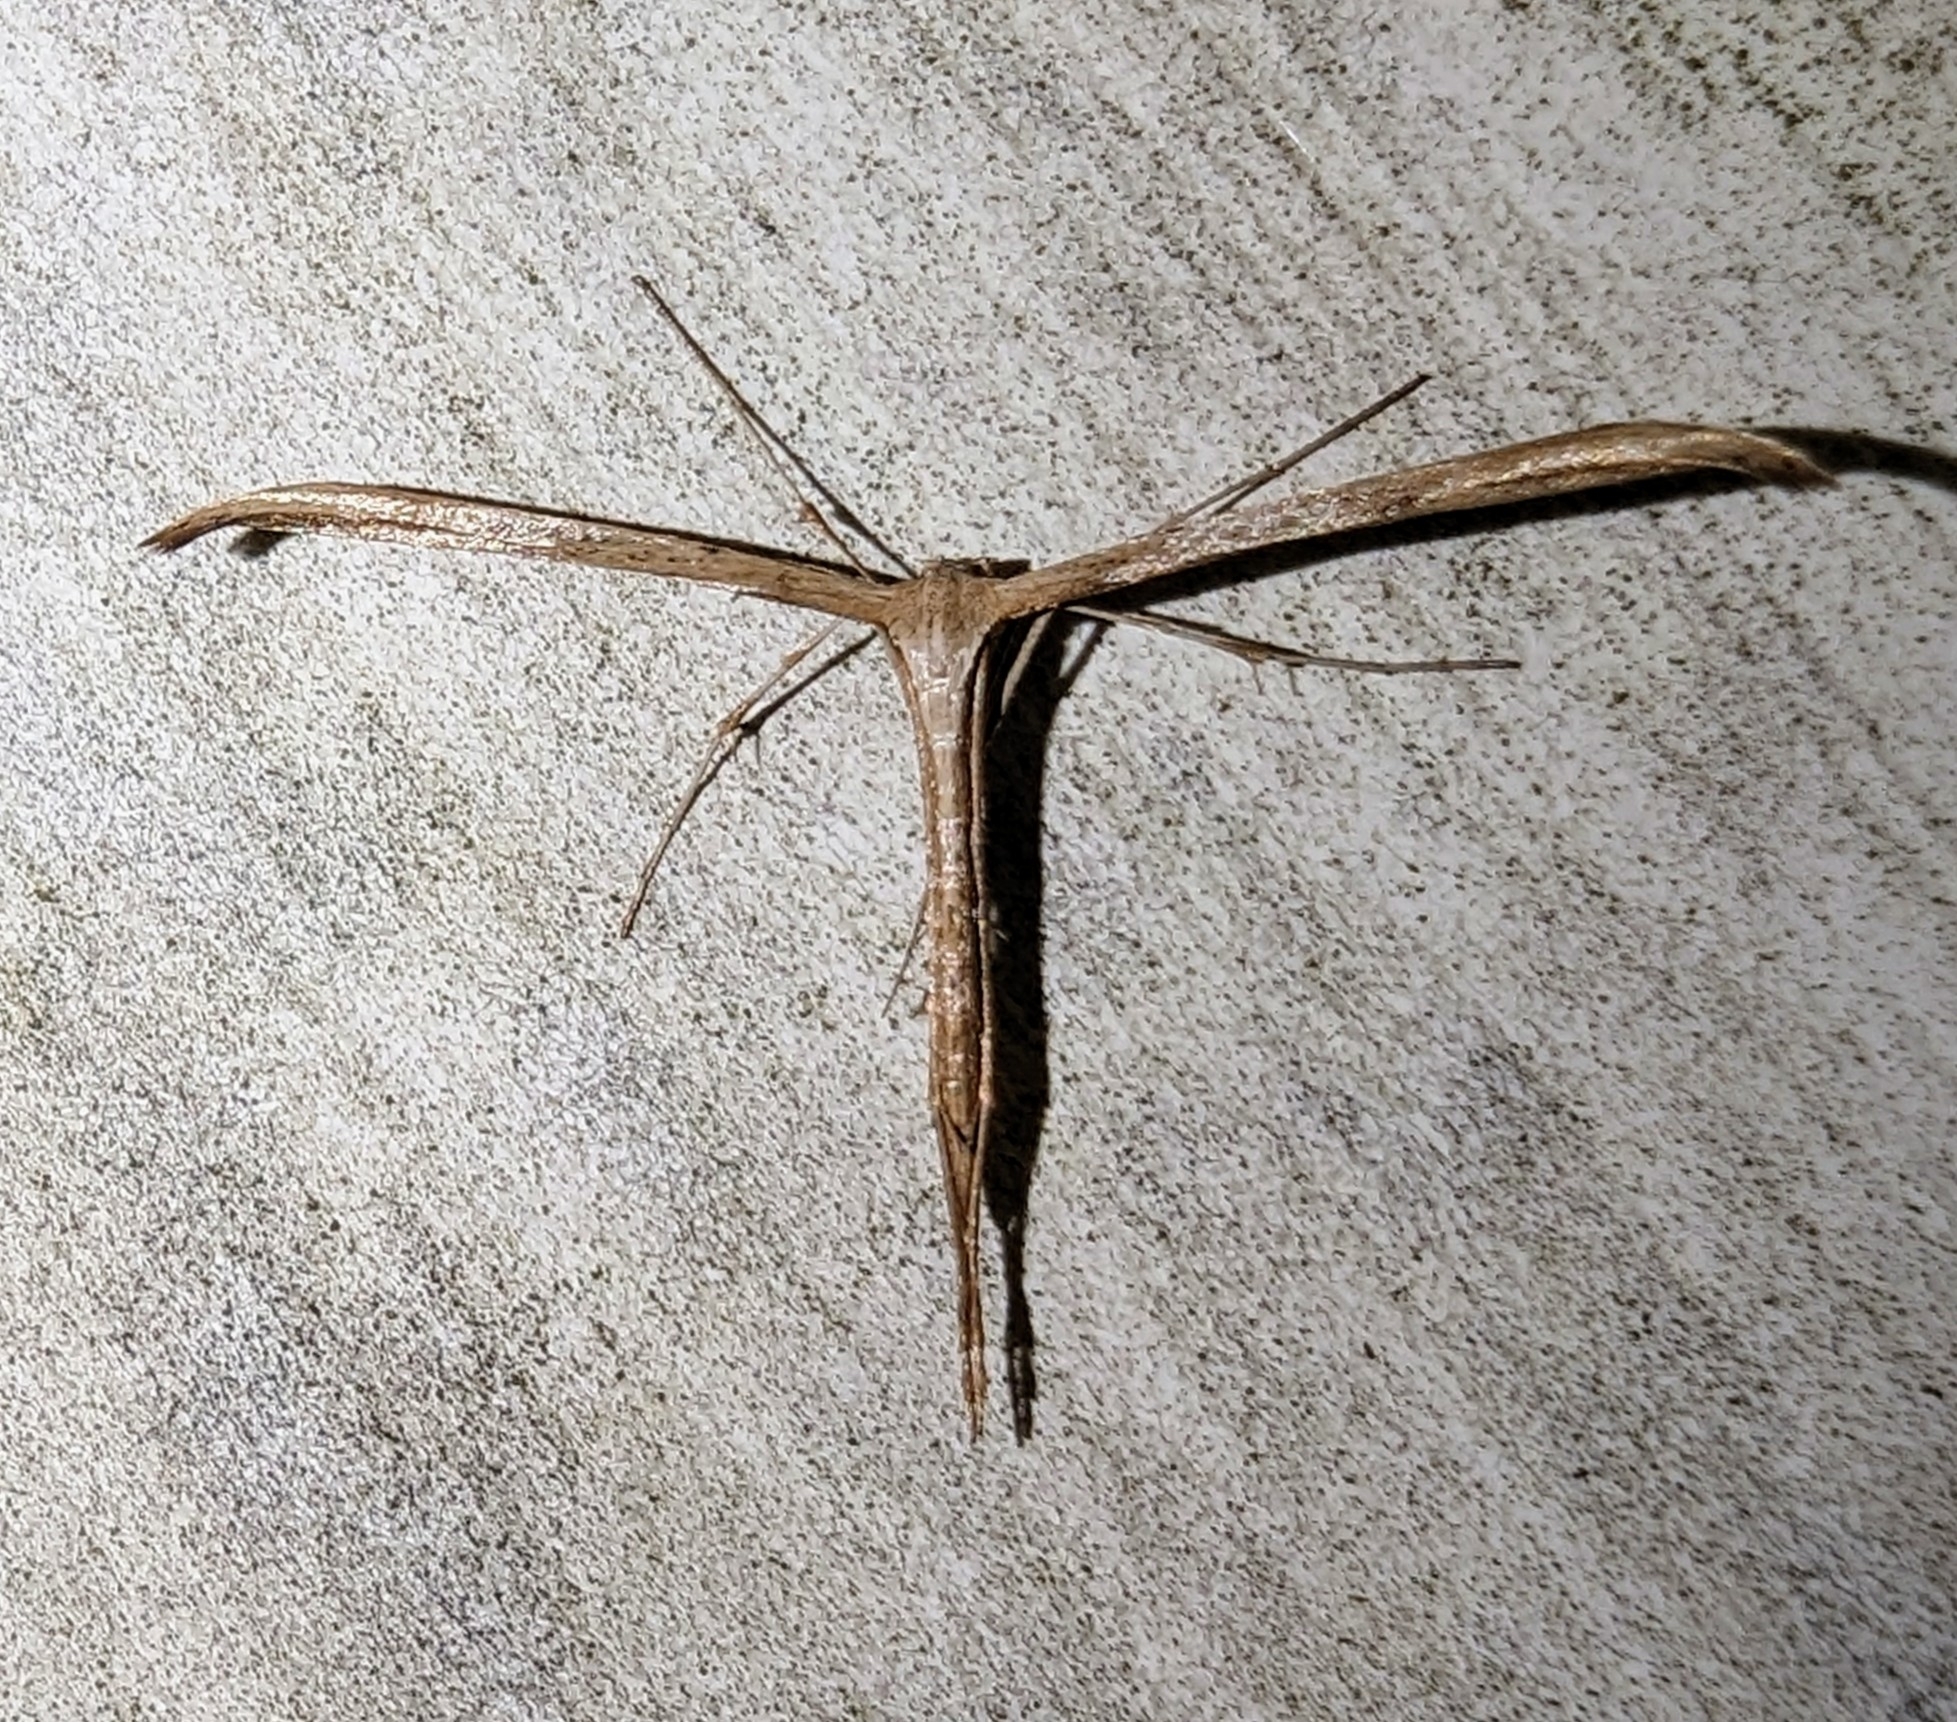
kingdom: Animalia
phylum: Arthropoda
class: Insecta
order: Lepidoptera
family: Pterophoridae
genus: Emmelina
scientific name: Emmelina monodactyla
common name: Common plume
